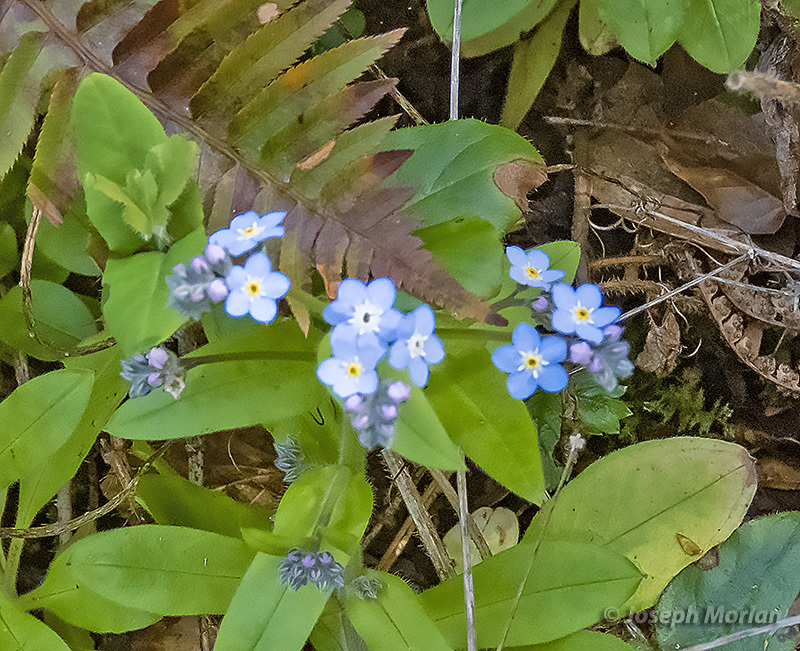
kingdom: Plantae
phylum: Tracheophyta
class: Magnoliopsida
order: Boraginales
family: Boraginaceae
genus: Myosotis
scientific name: Myosotis latifolia
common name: Broadleaf forget-me-not
